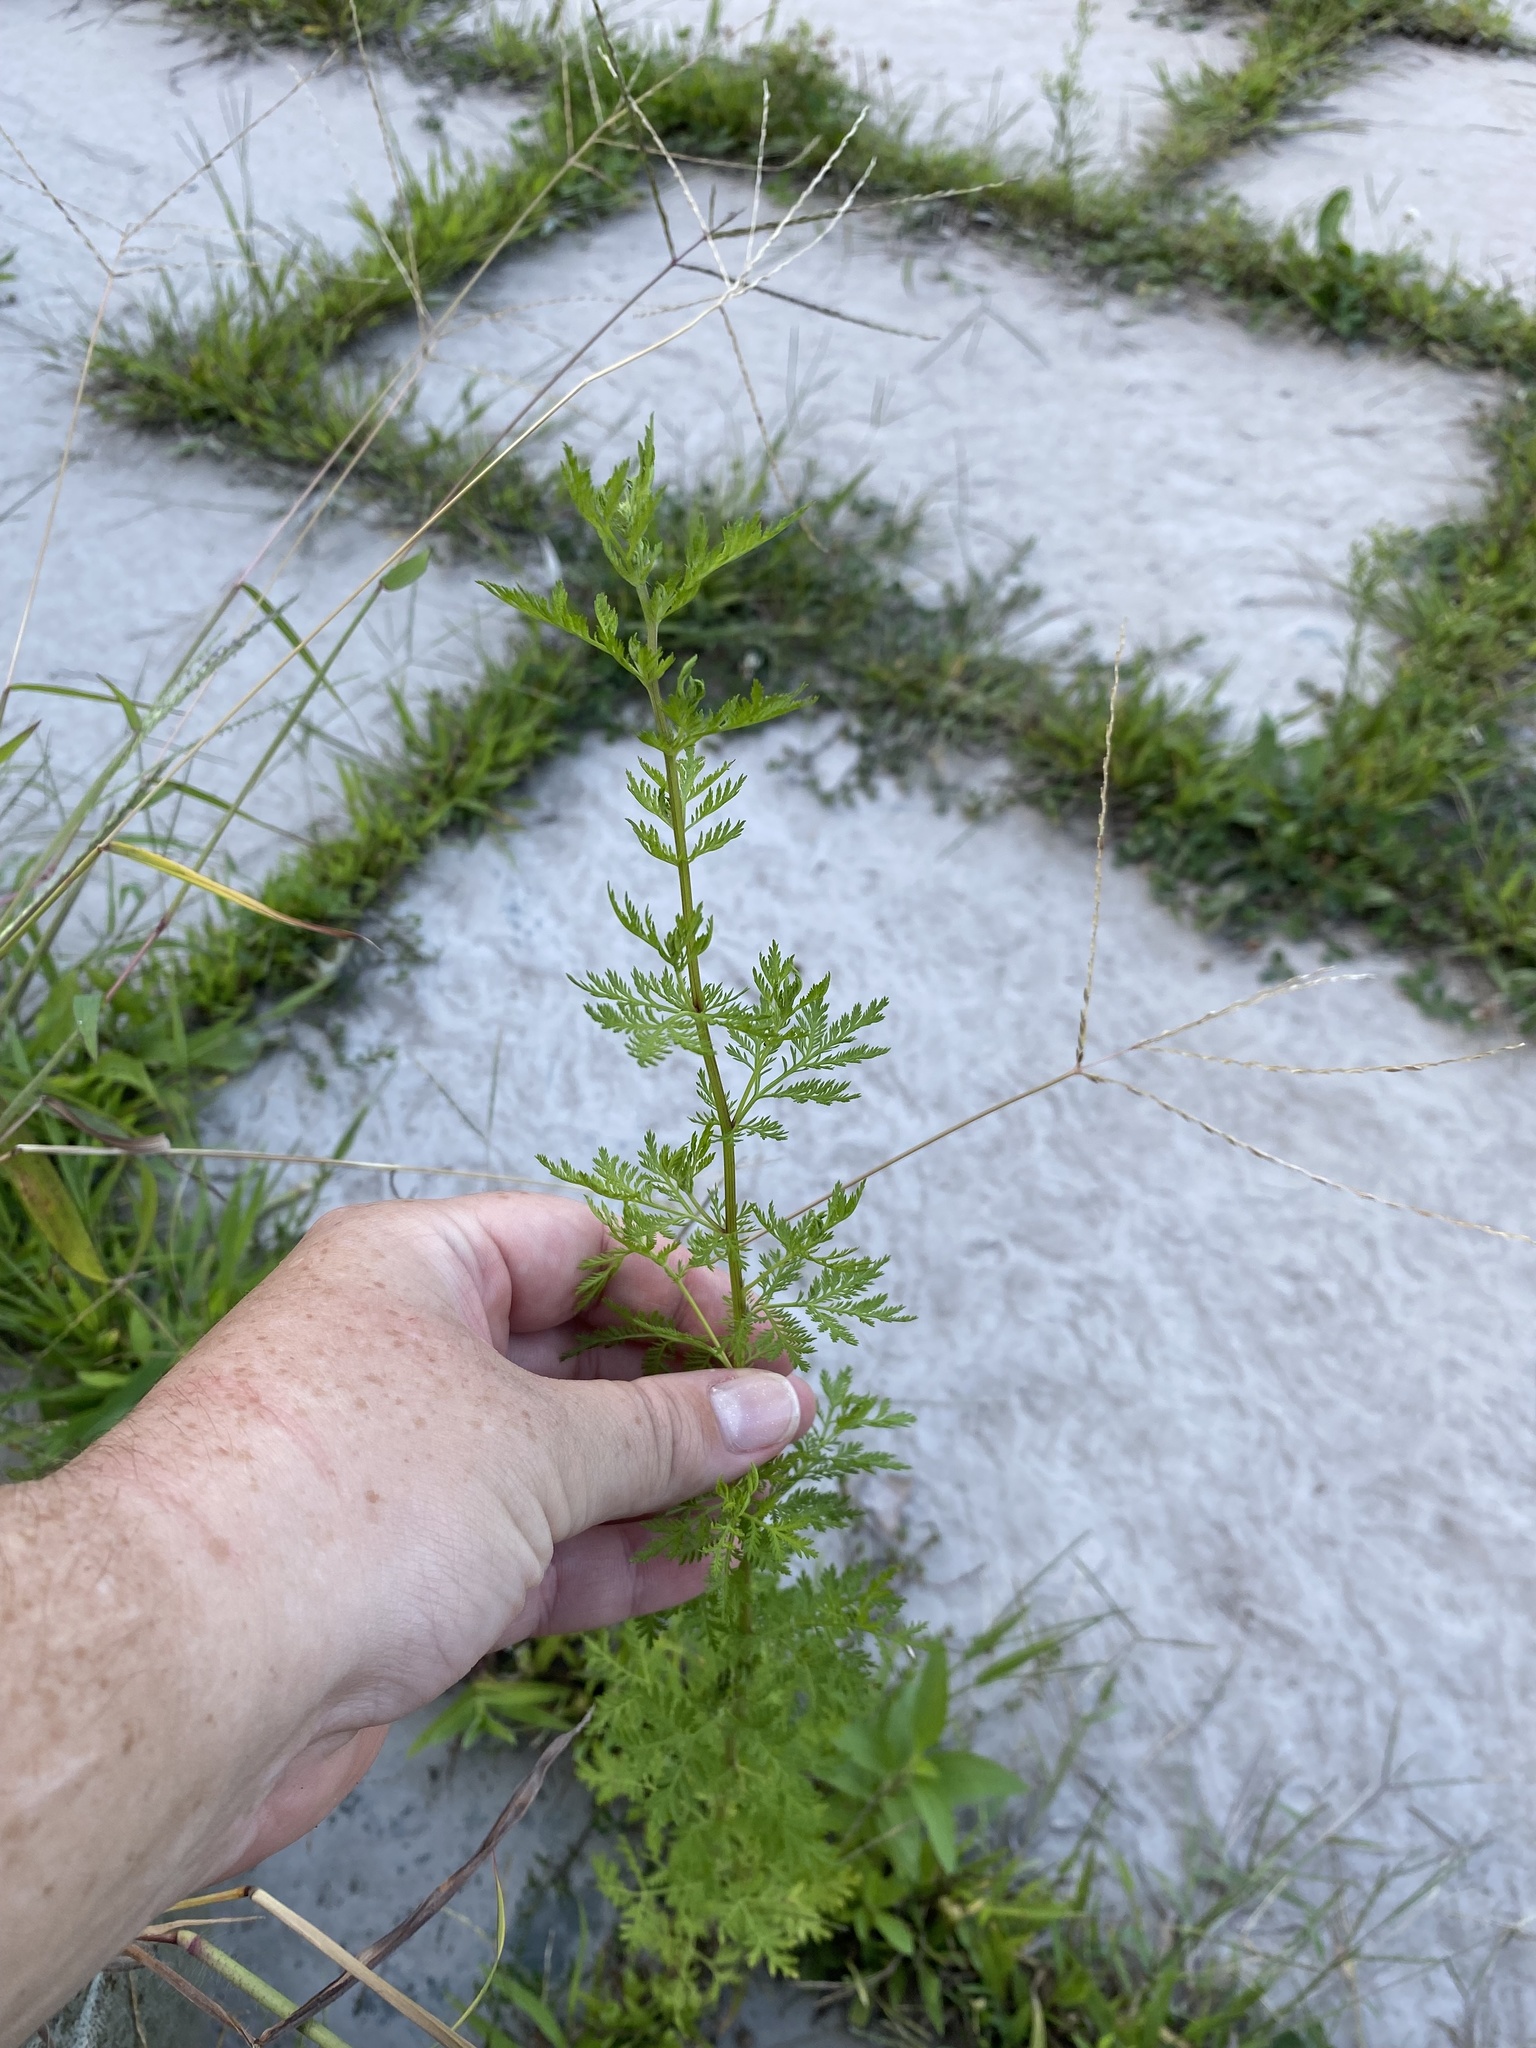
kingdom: Plantae
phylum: Tracheophyta
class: Magnoliopsida
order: Asterales
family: Asteraceae
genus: Artemisia
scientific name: Artemisia annua
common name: Sweet sagewort
